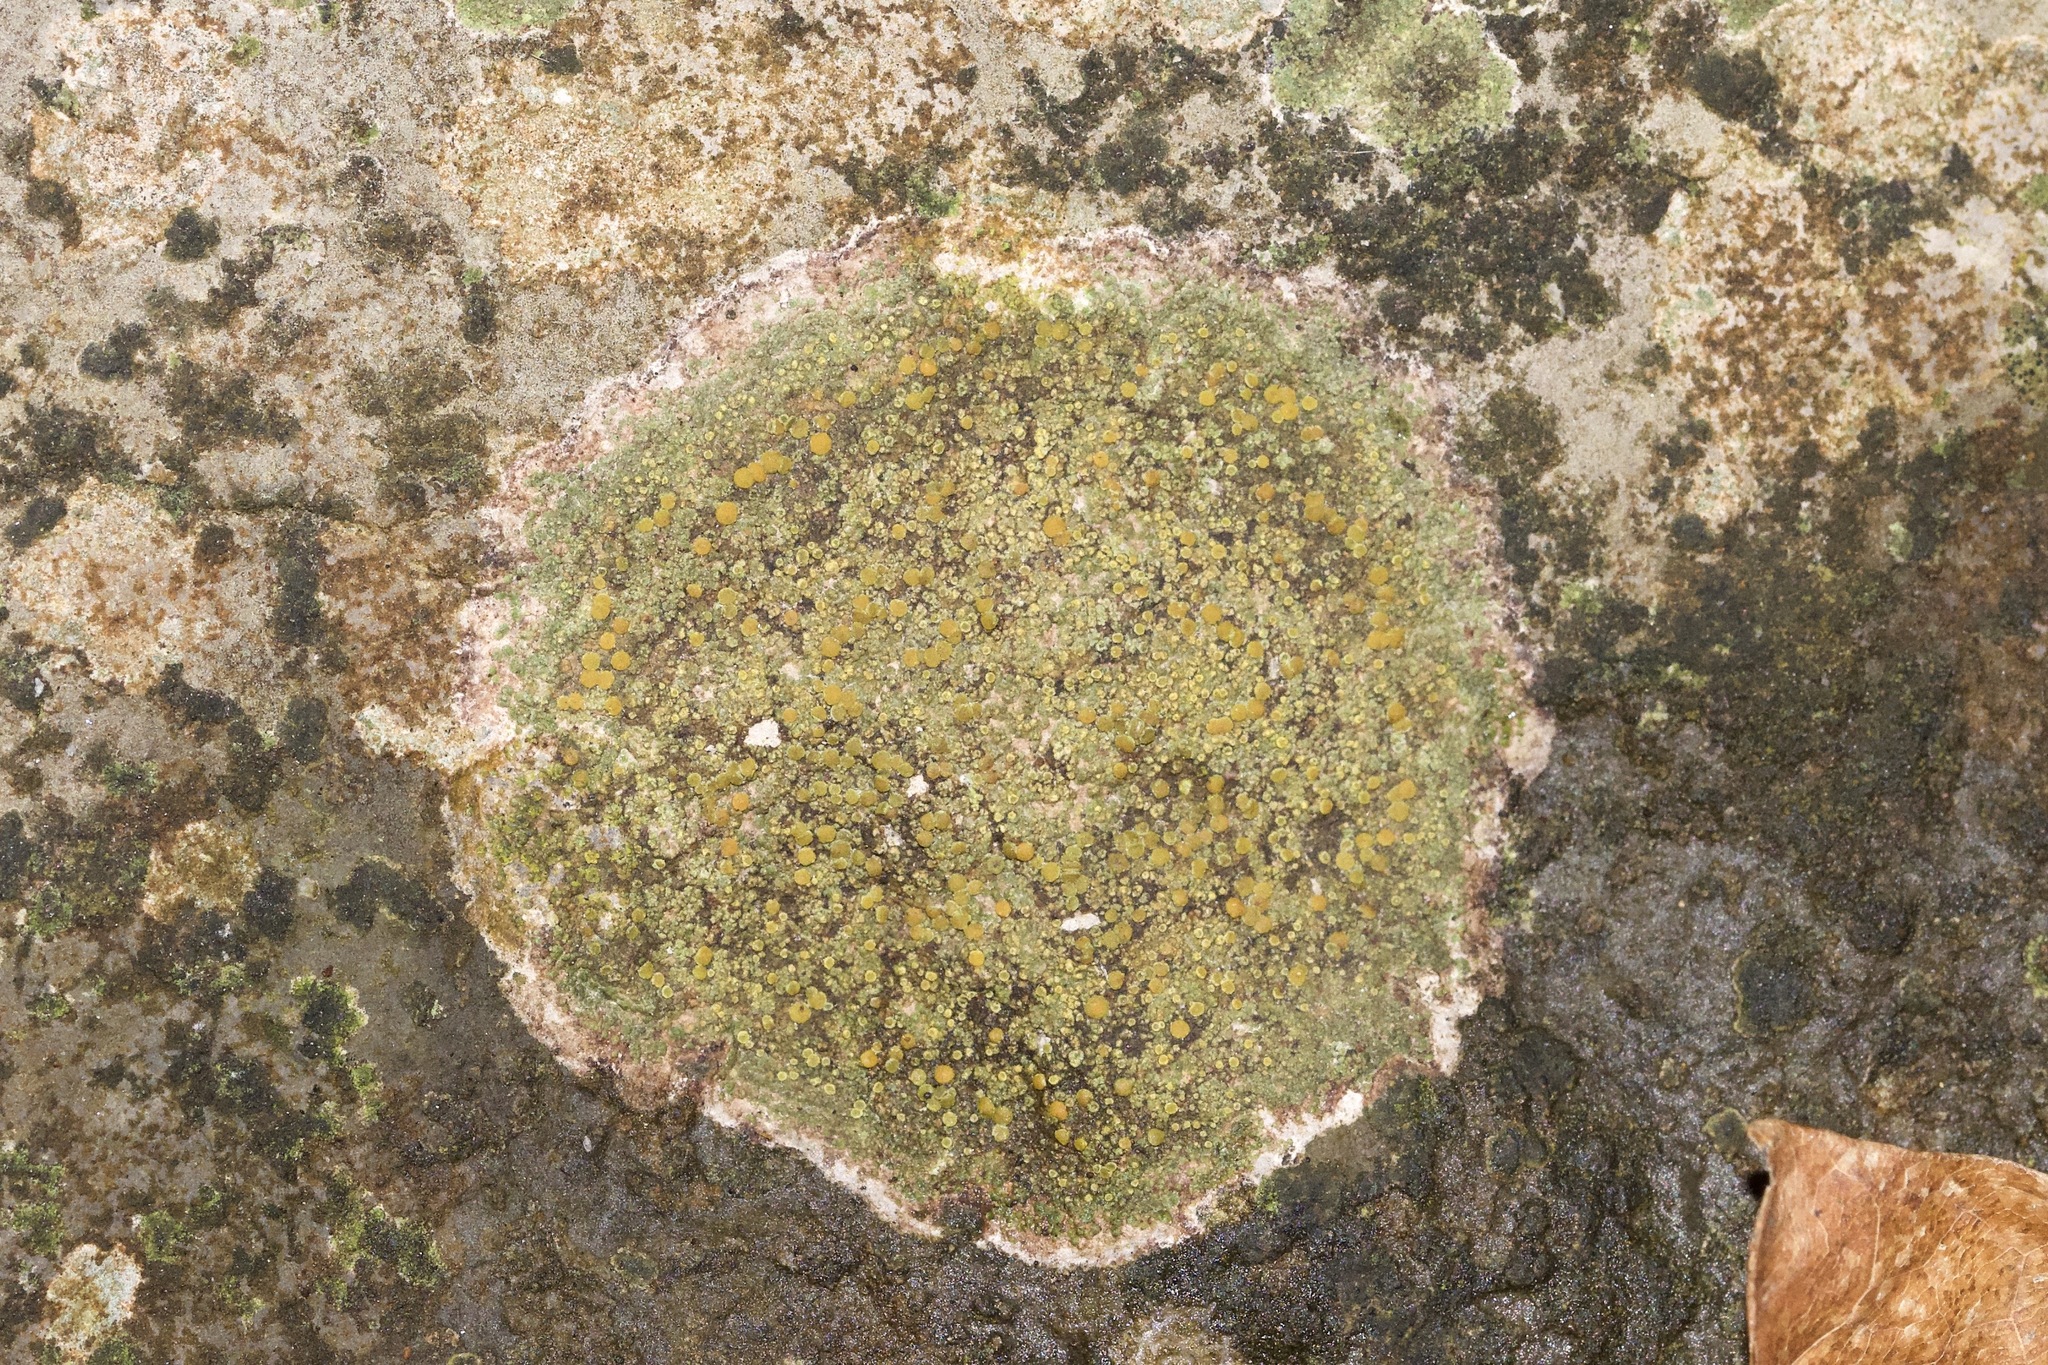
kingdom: Fungi
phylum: Ascomycota
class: Lecanoromycetes
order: Teloschistales
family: Teloschistaceae
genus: Gyalolechia
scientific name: Gyalolechia flavovirescens
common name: Sulphur firedot
